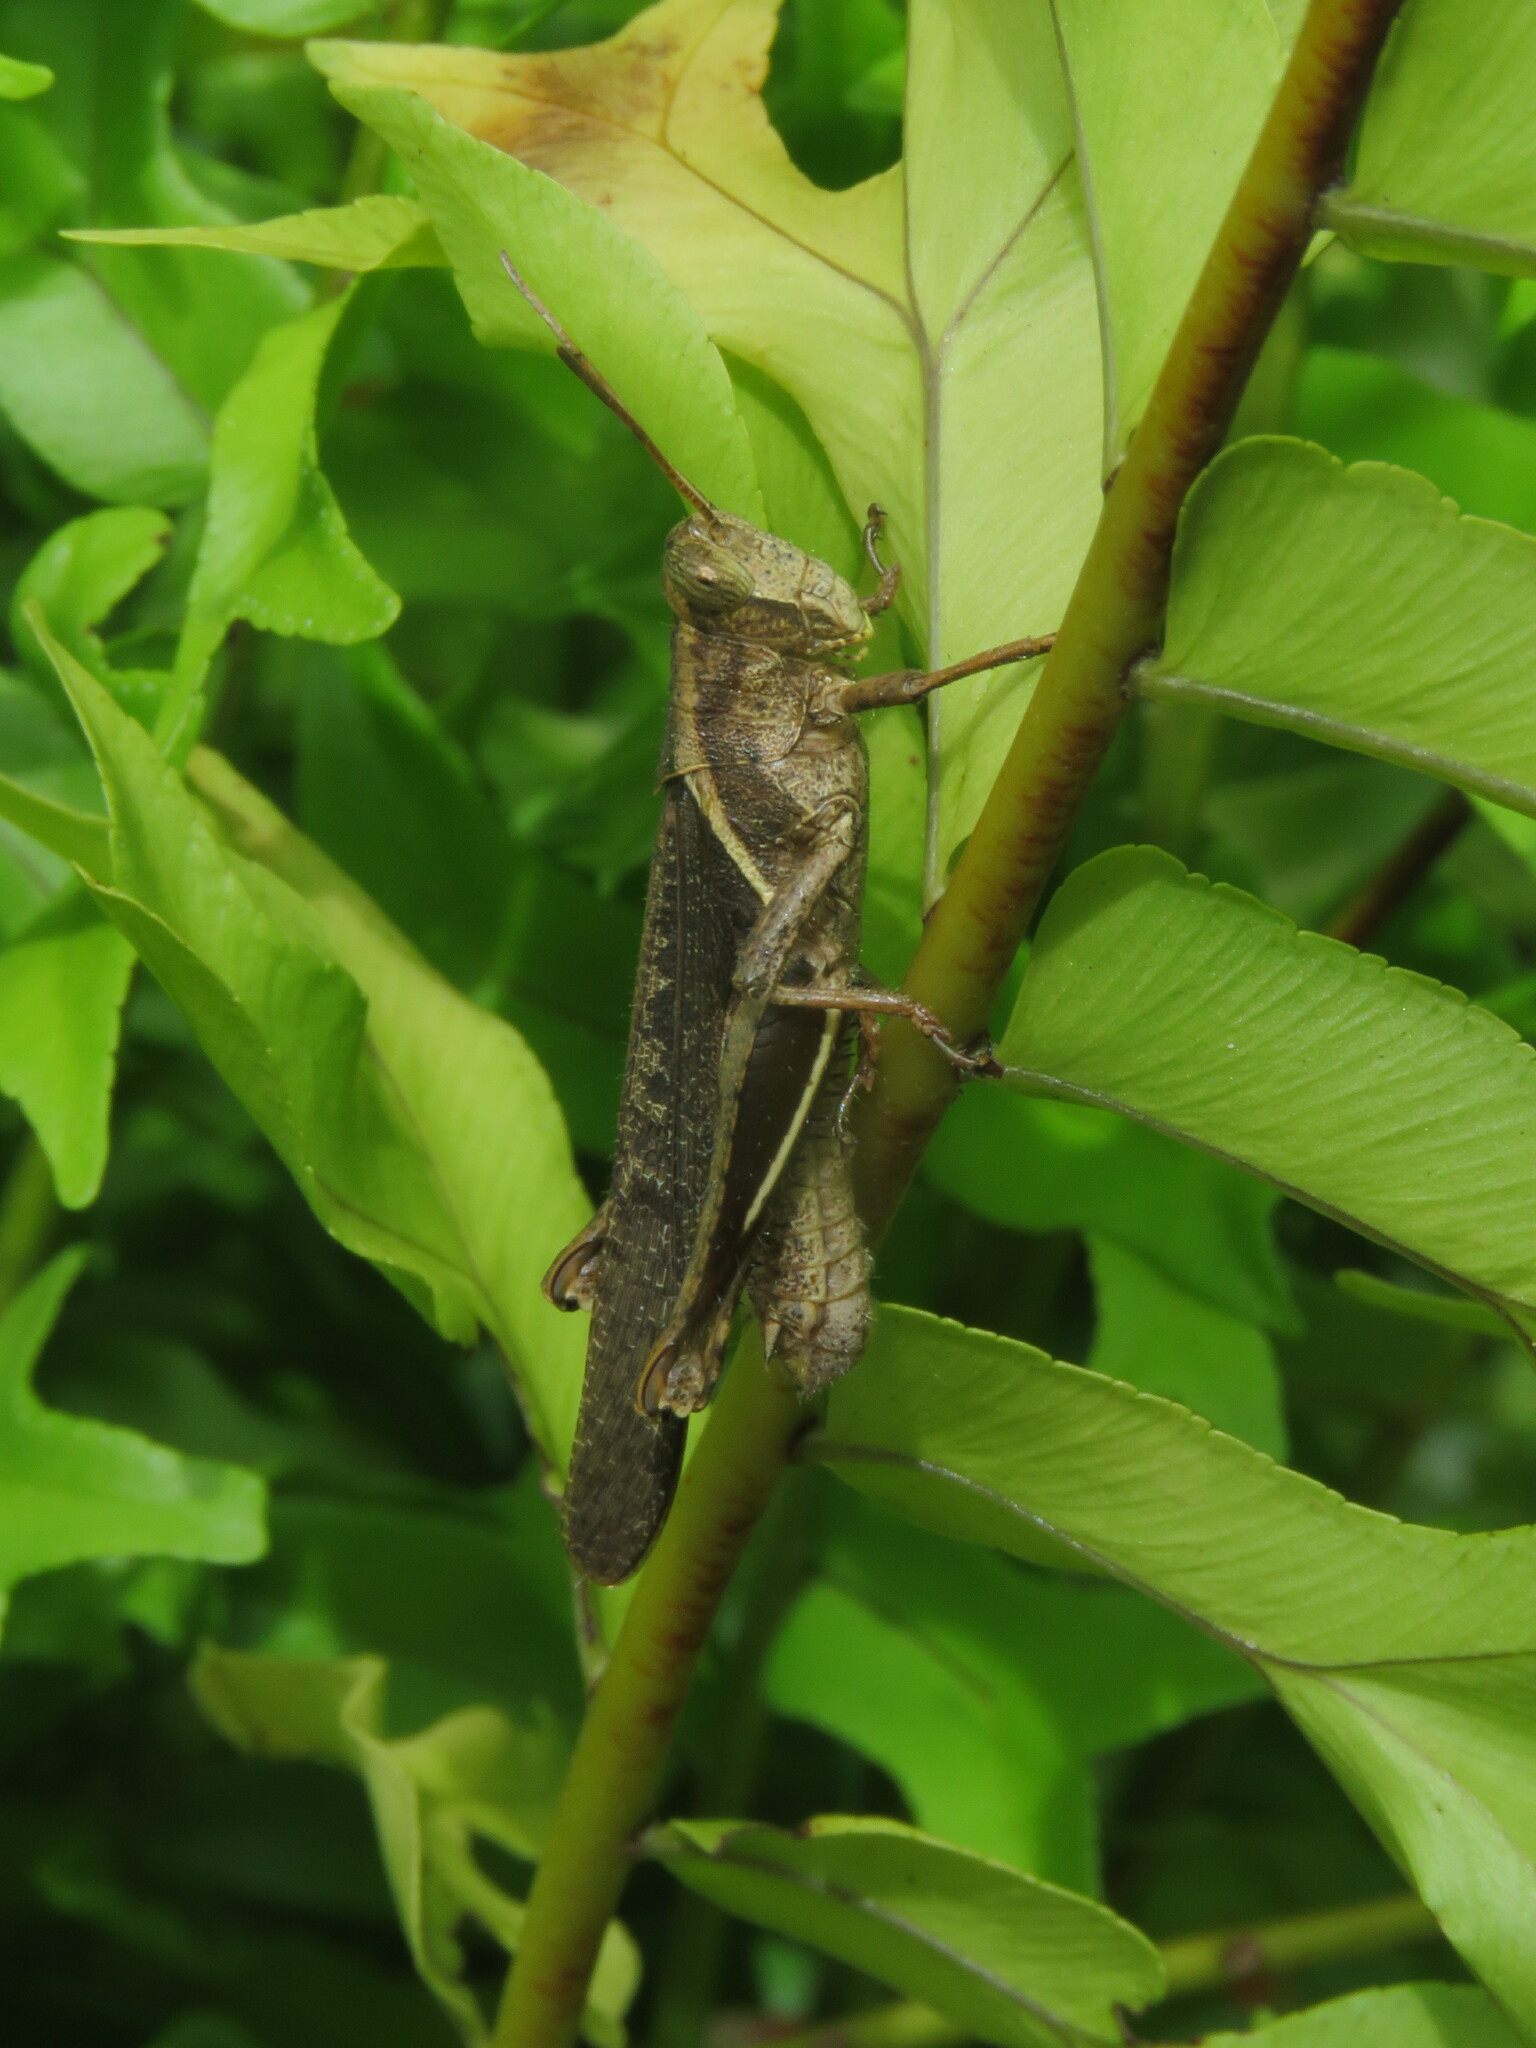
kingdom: Animalia
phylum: Arthropoda
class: Insecta
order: Orthoptera
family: Acrididae
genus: Abracris
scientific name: Abracris flavolineata
